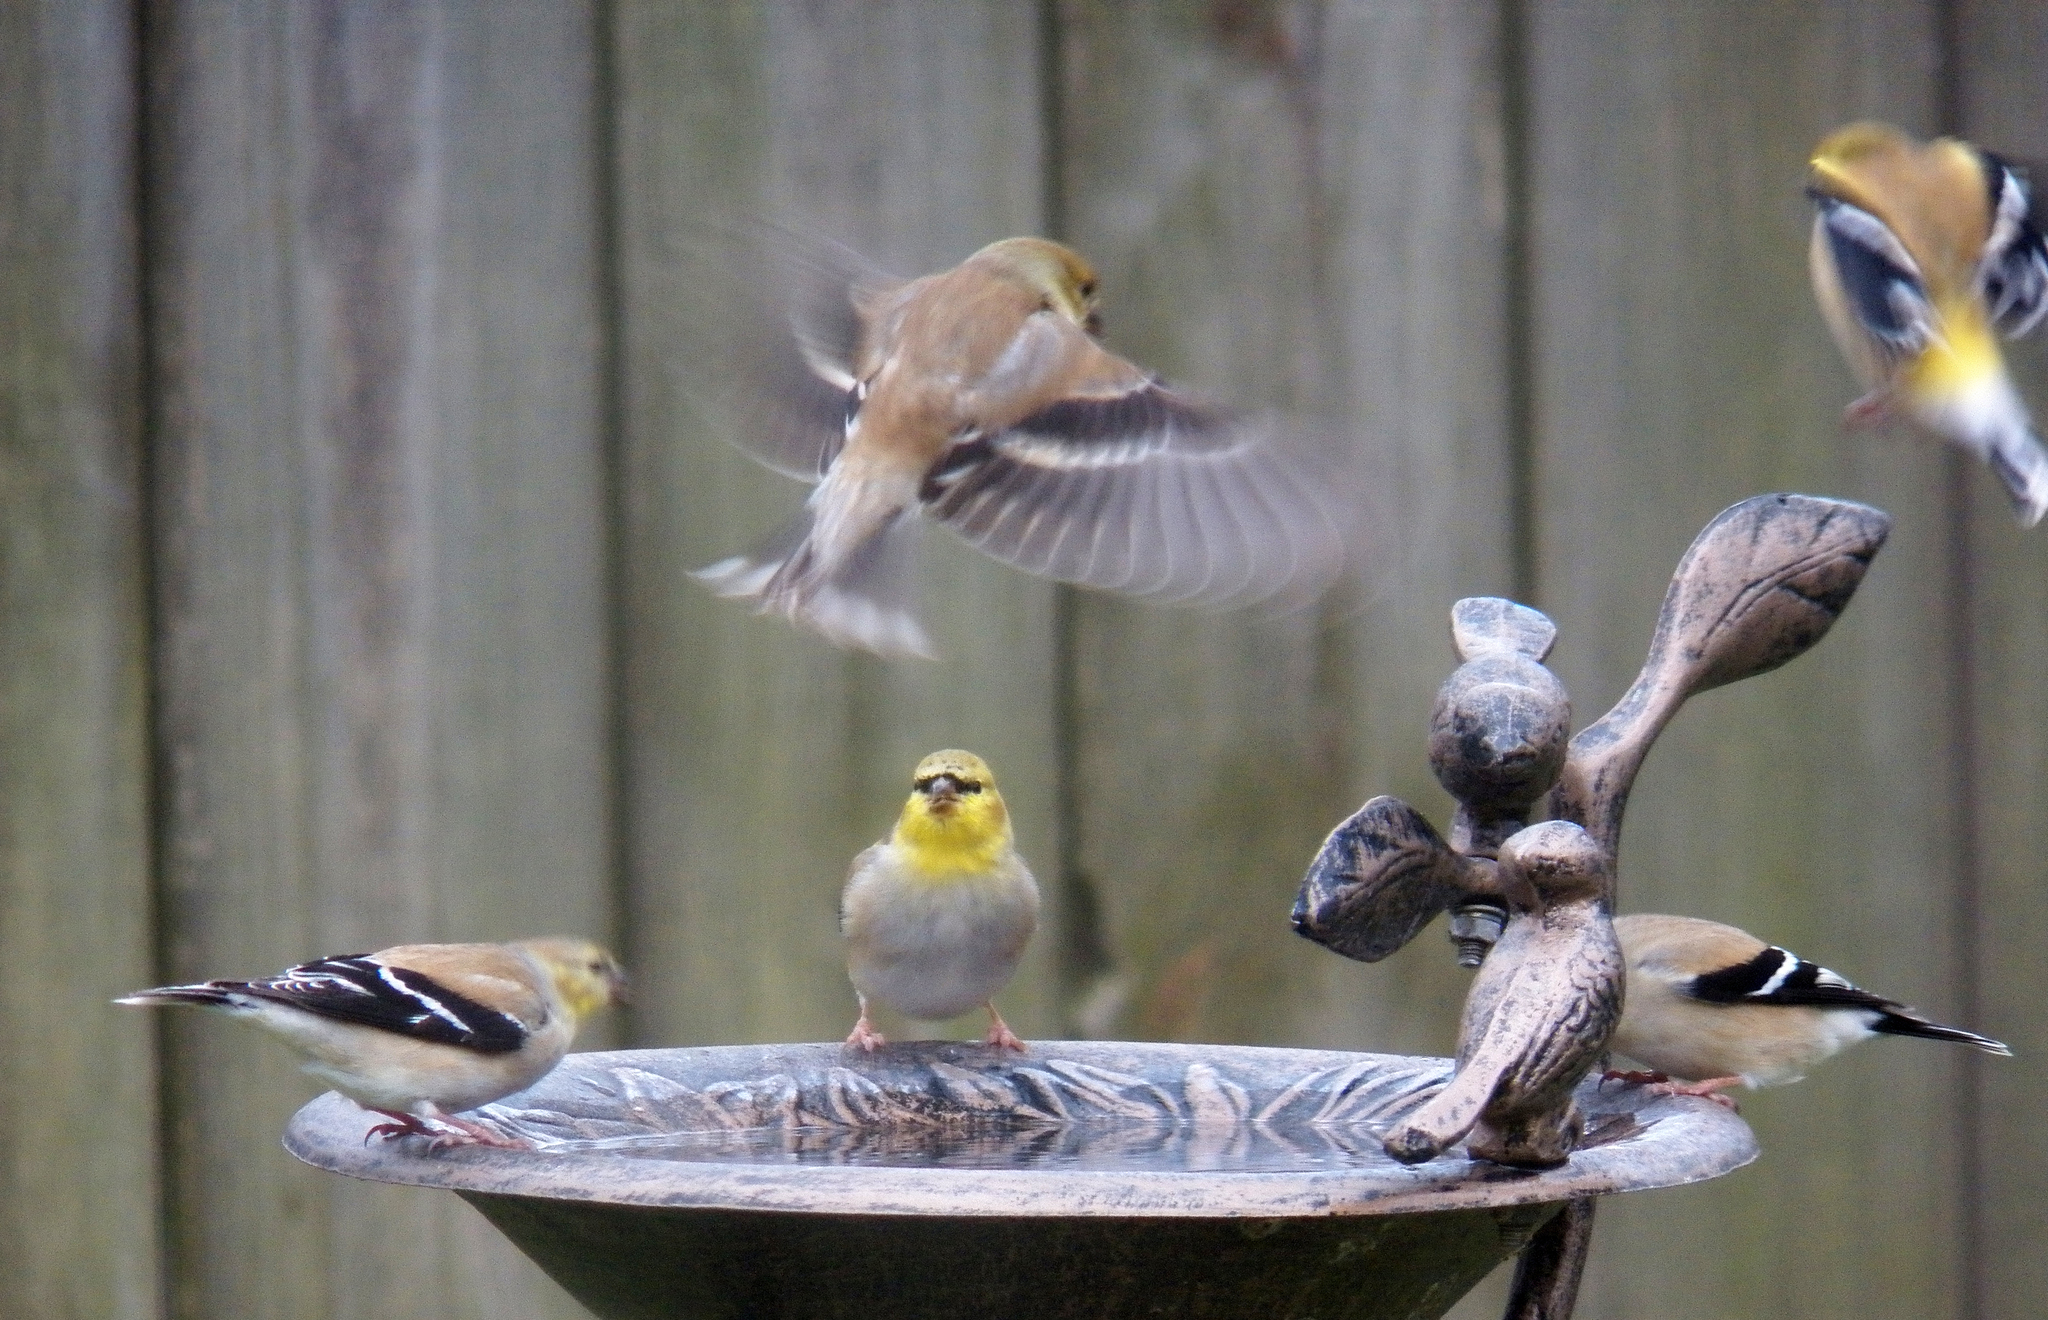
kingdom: Animalia
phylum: Chordata
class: Aves
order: Passeriformes
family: Fringillidae
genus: Spinus
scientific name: Spinus tristis
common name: American goldfinch
